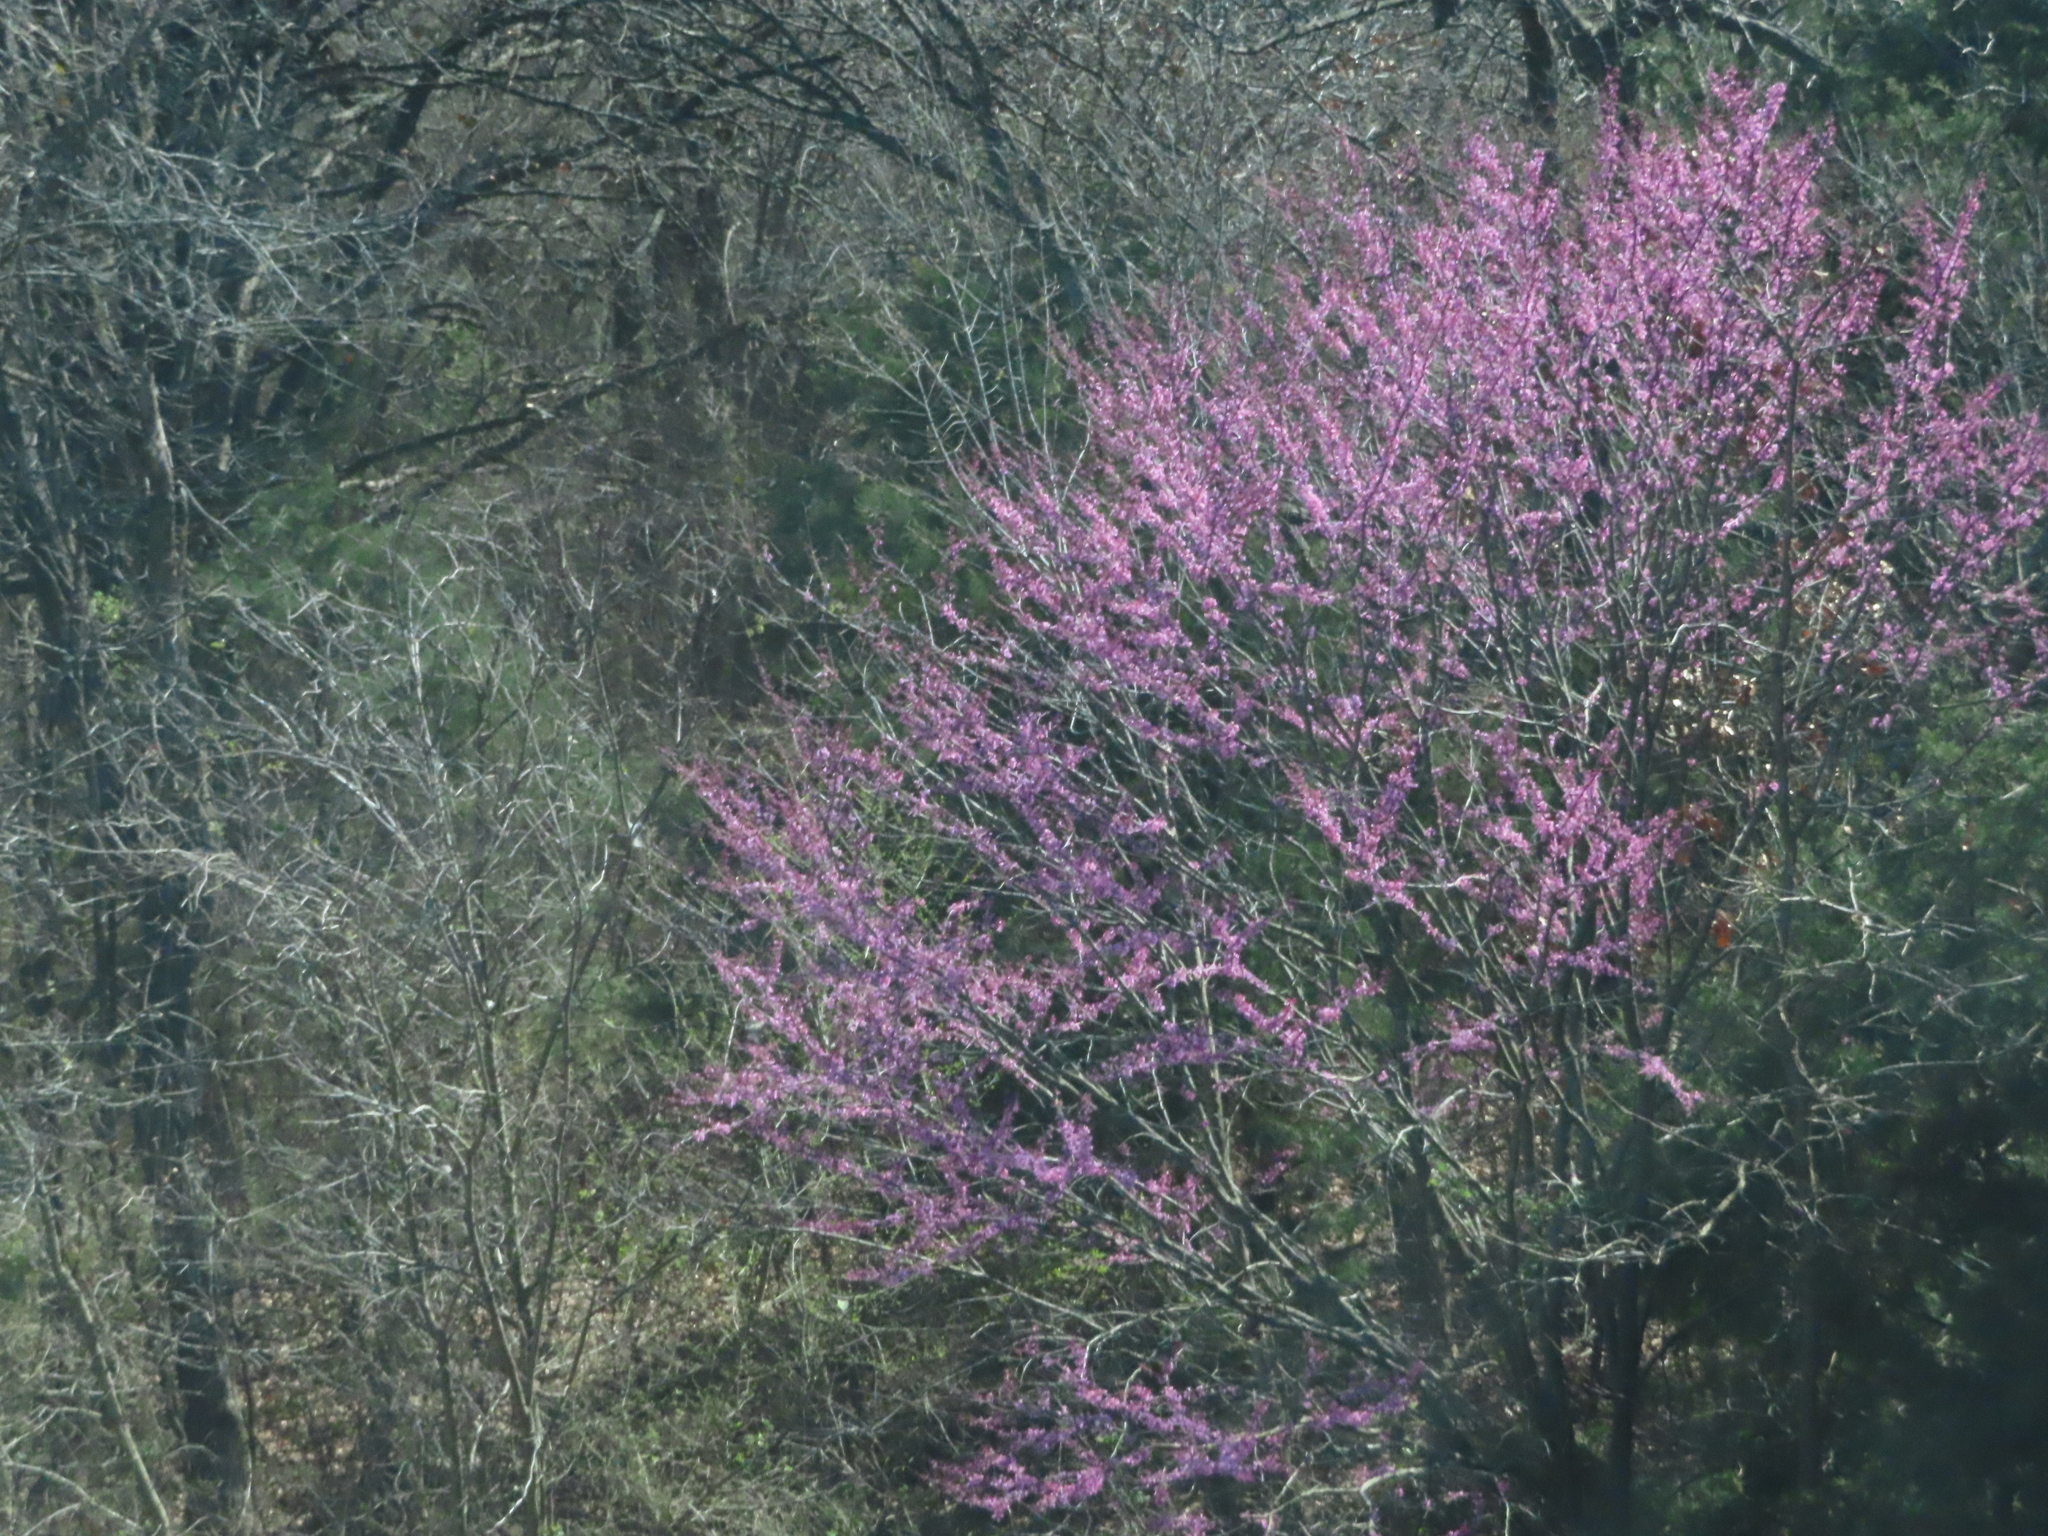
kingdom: Plantae
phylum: Tracheophyta
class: Magnoliopsida
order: Fabales
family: Fabaceae
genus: Cercis
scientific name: Cercis canadensis
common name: Eastern redbud
